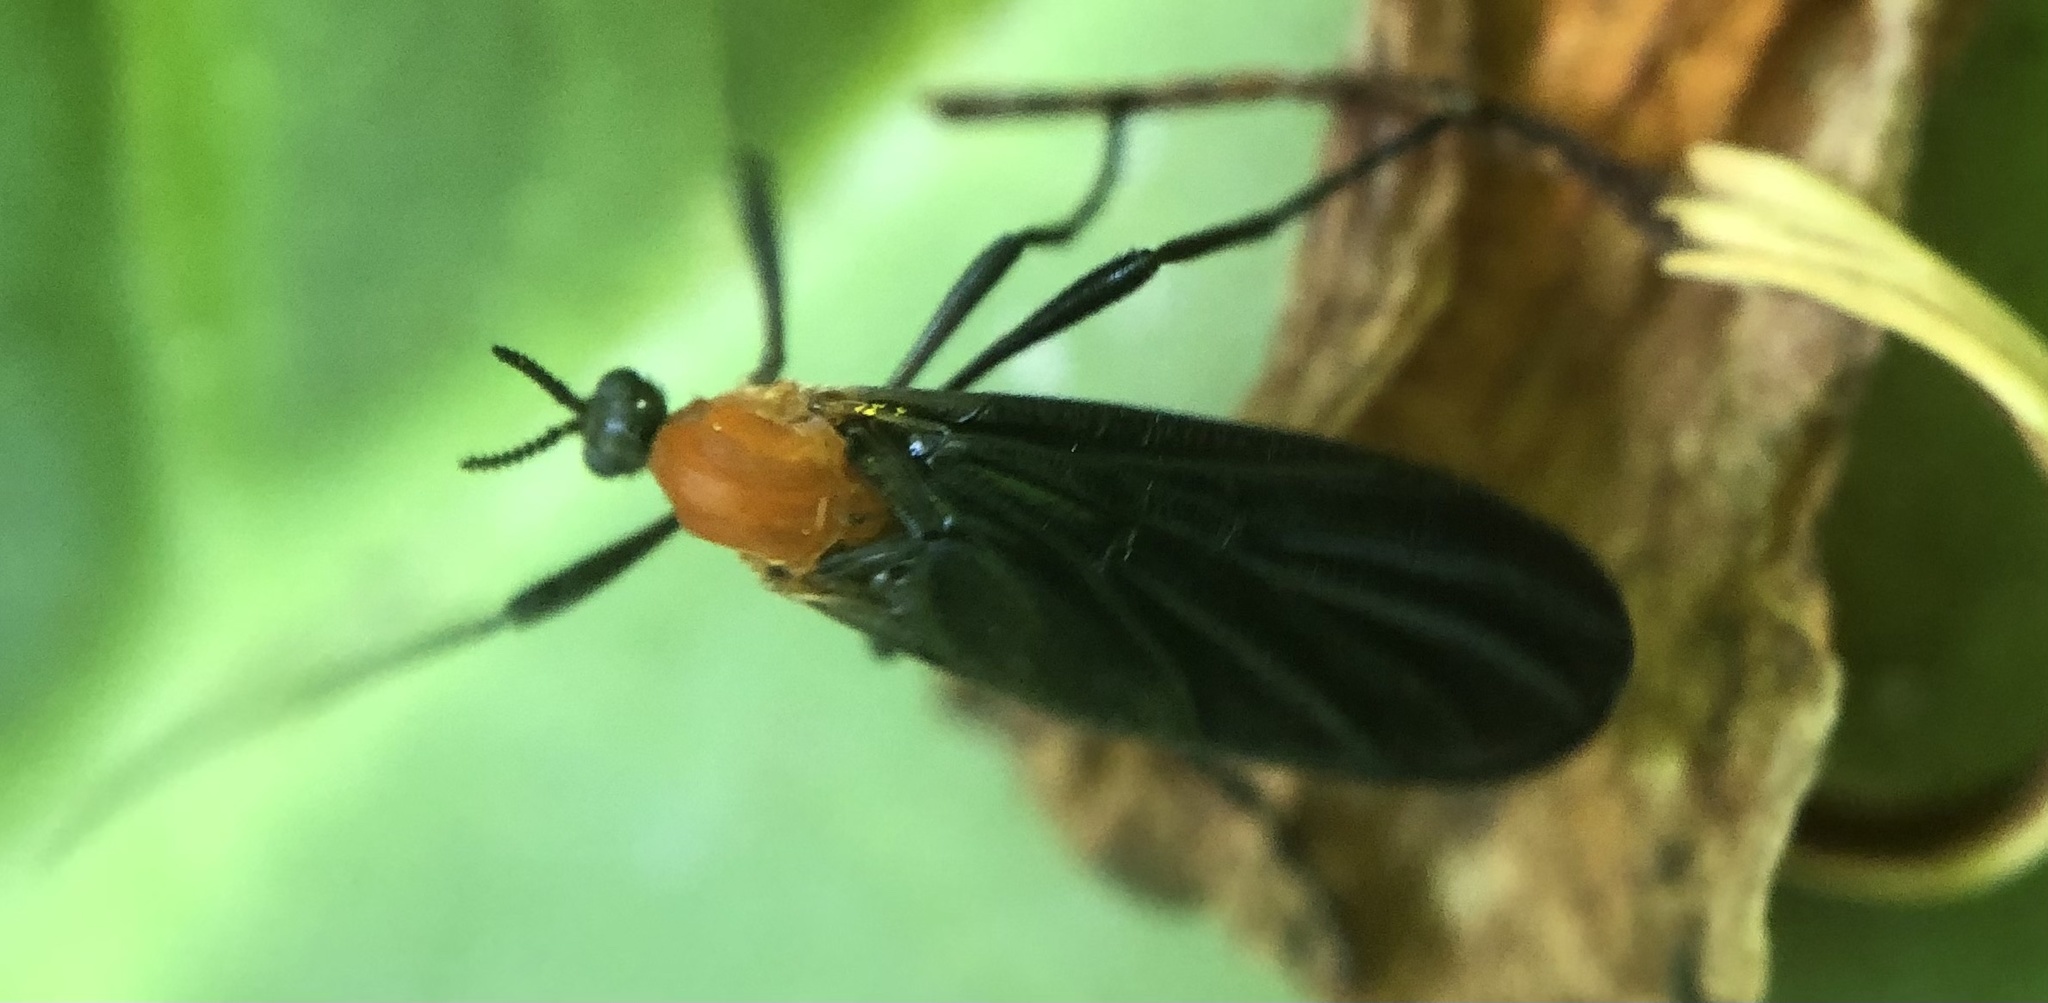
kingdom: Animalia
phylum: Arthropoda
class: Insecta
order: Diptera
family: Bibionidae
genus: Plecia
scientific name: Plecia americana
